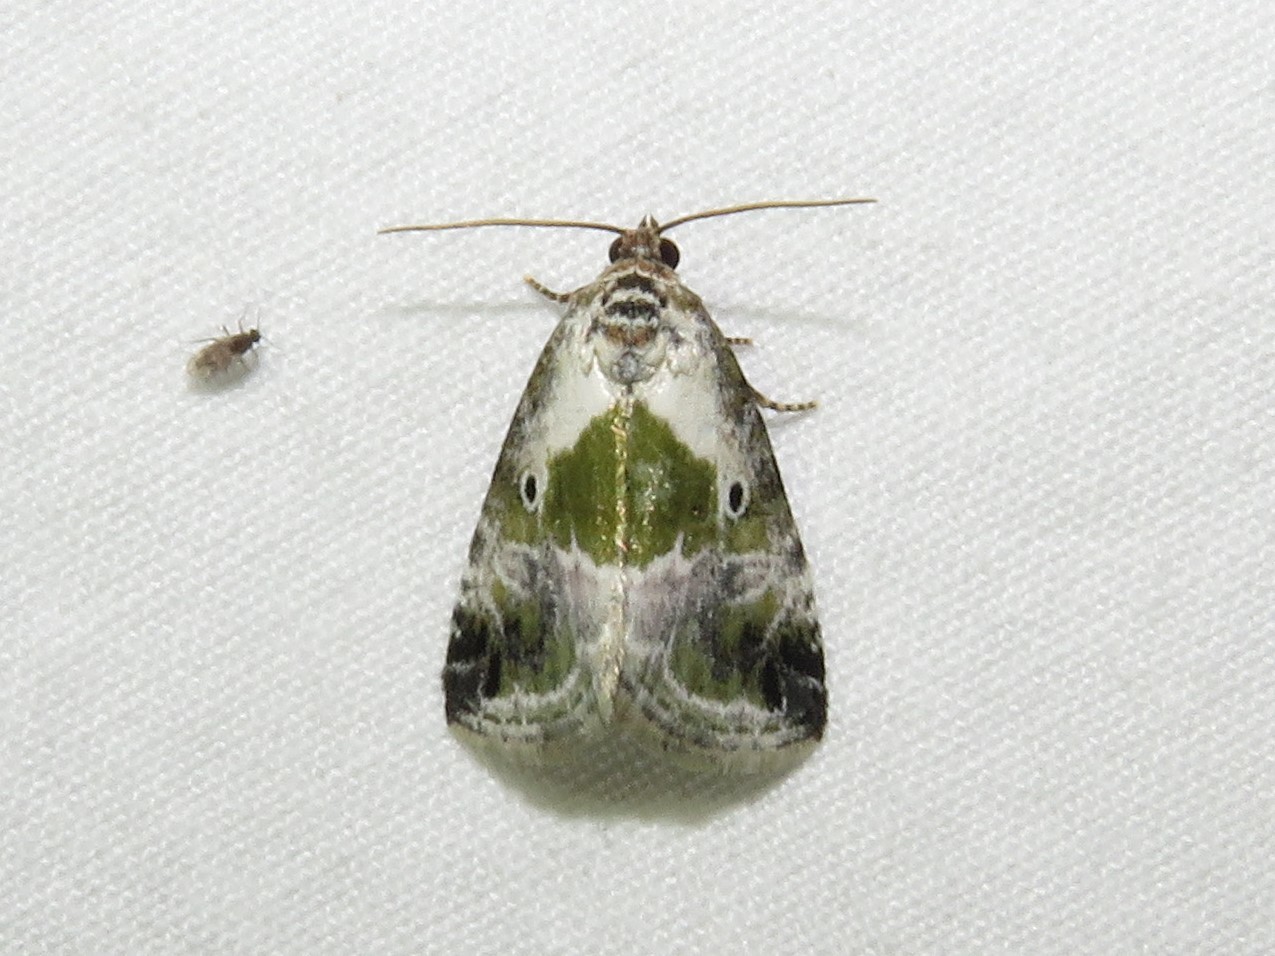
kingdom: Animalia
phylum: Arthropoda
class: Insecta
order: Lepidoptera
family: Noctuidae
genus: Maliattha
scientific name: Maliattha synochitis
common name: Black-dotted glyph
